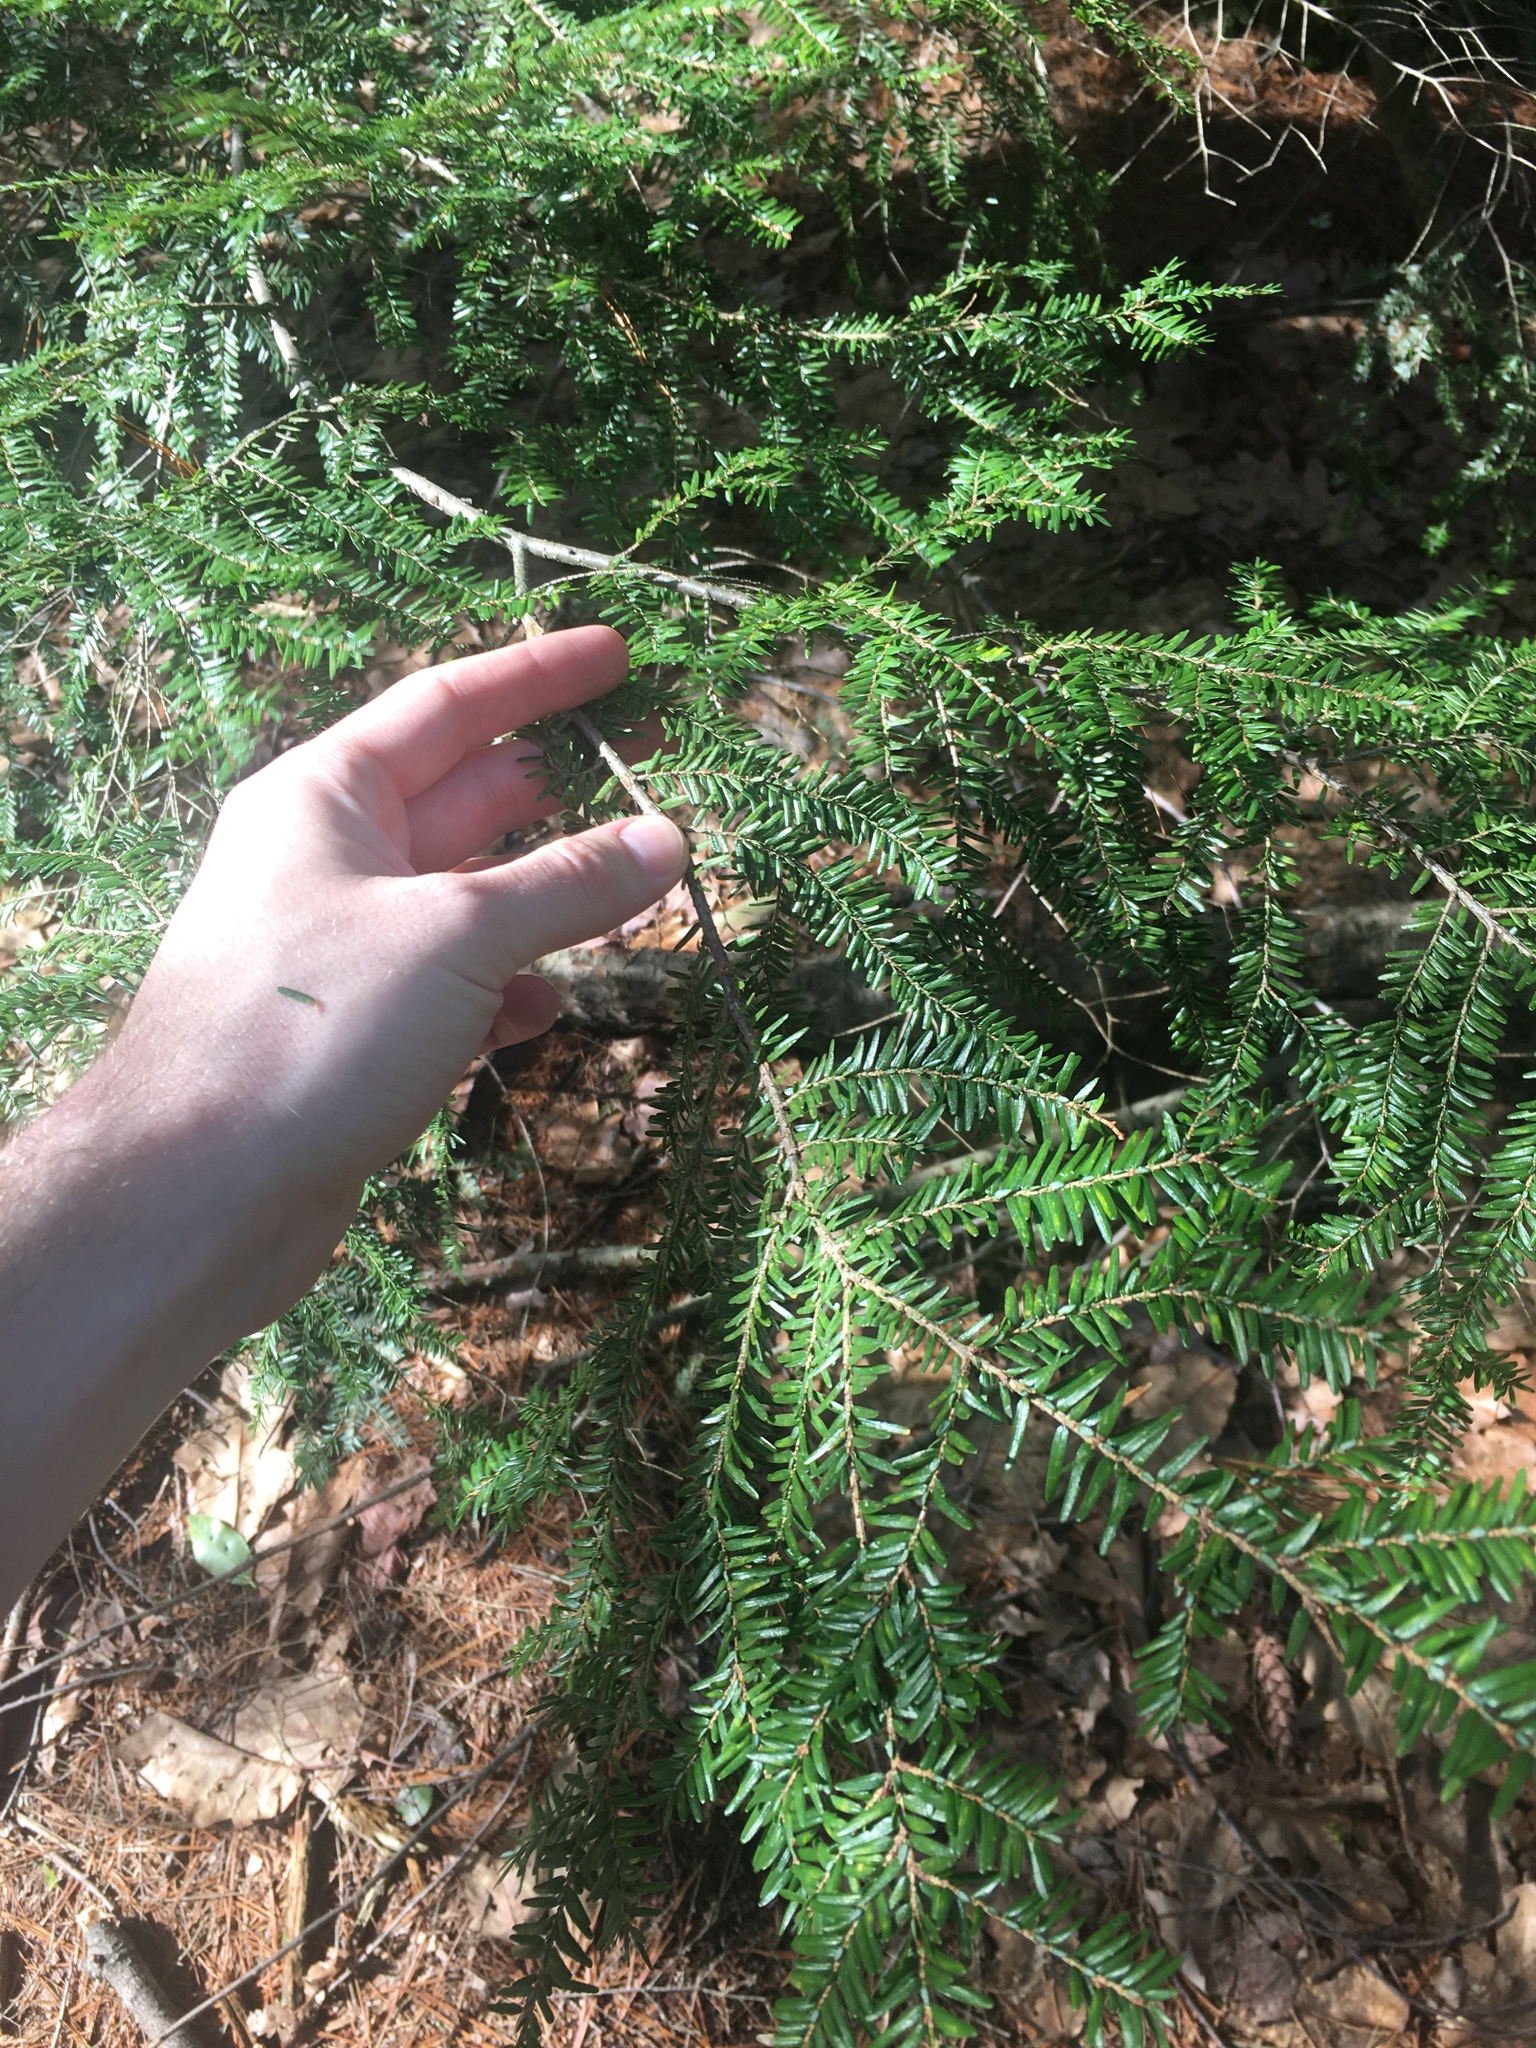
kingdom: Plantae
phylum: Tracheophyta
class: Pinopsida
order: Pinales
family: Pinaceae
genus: Tsuga
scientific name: Tsuga canadensis
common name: Eastern hemlock
